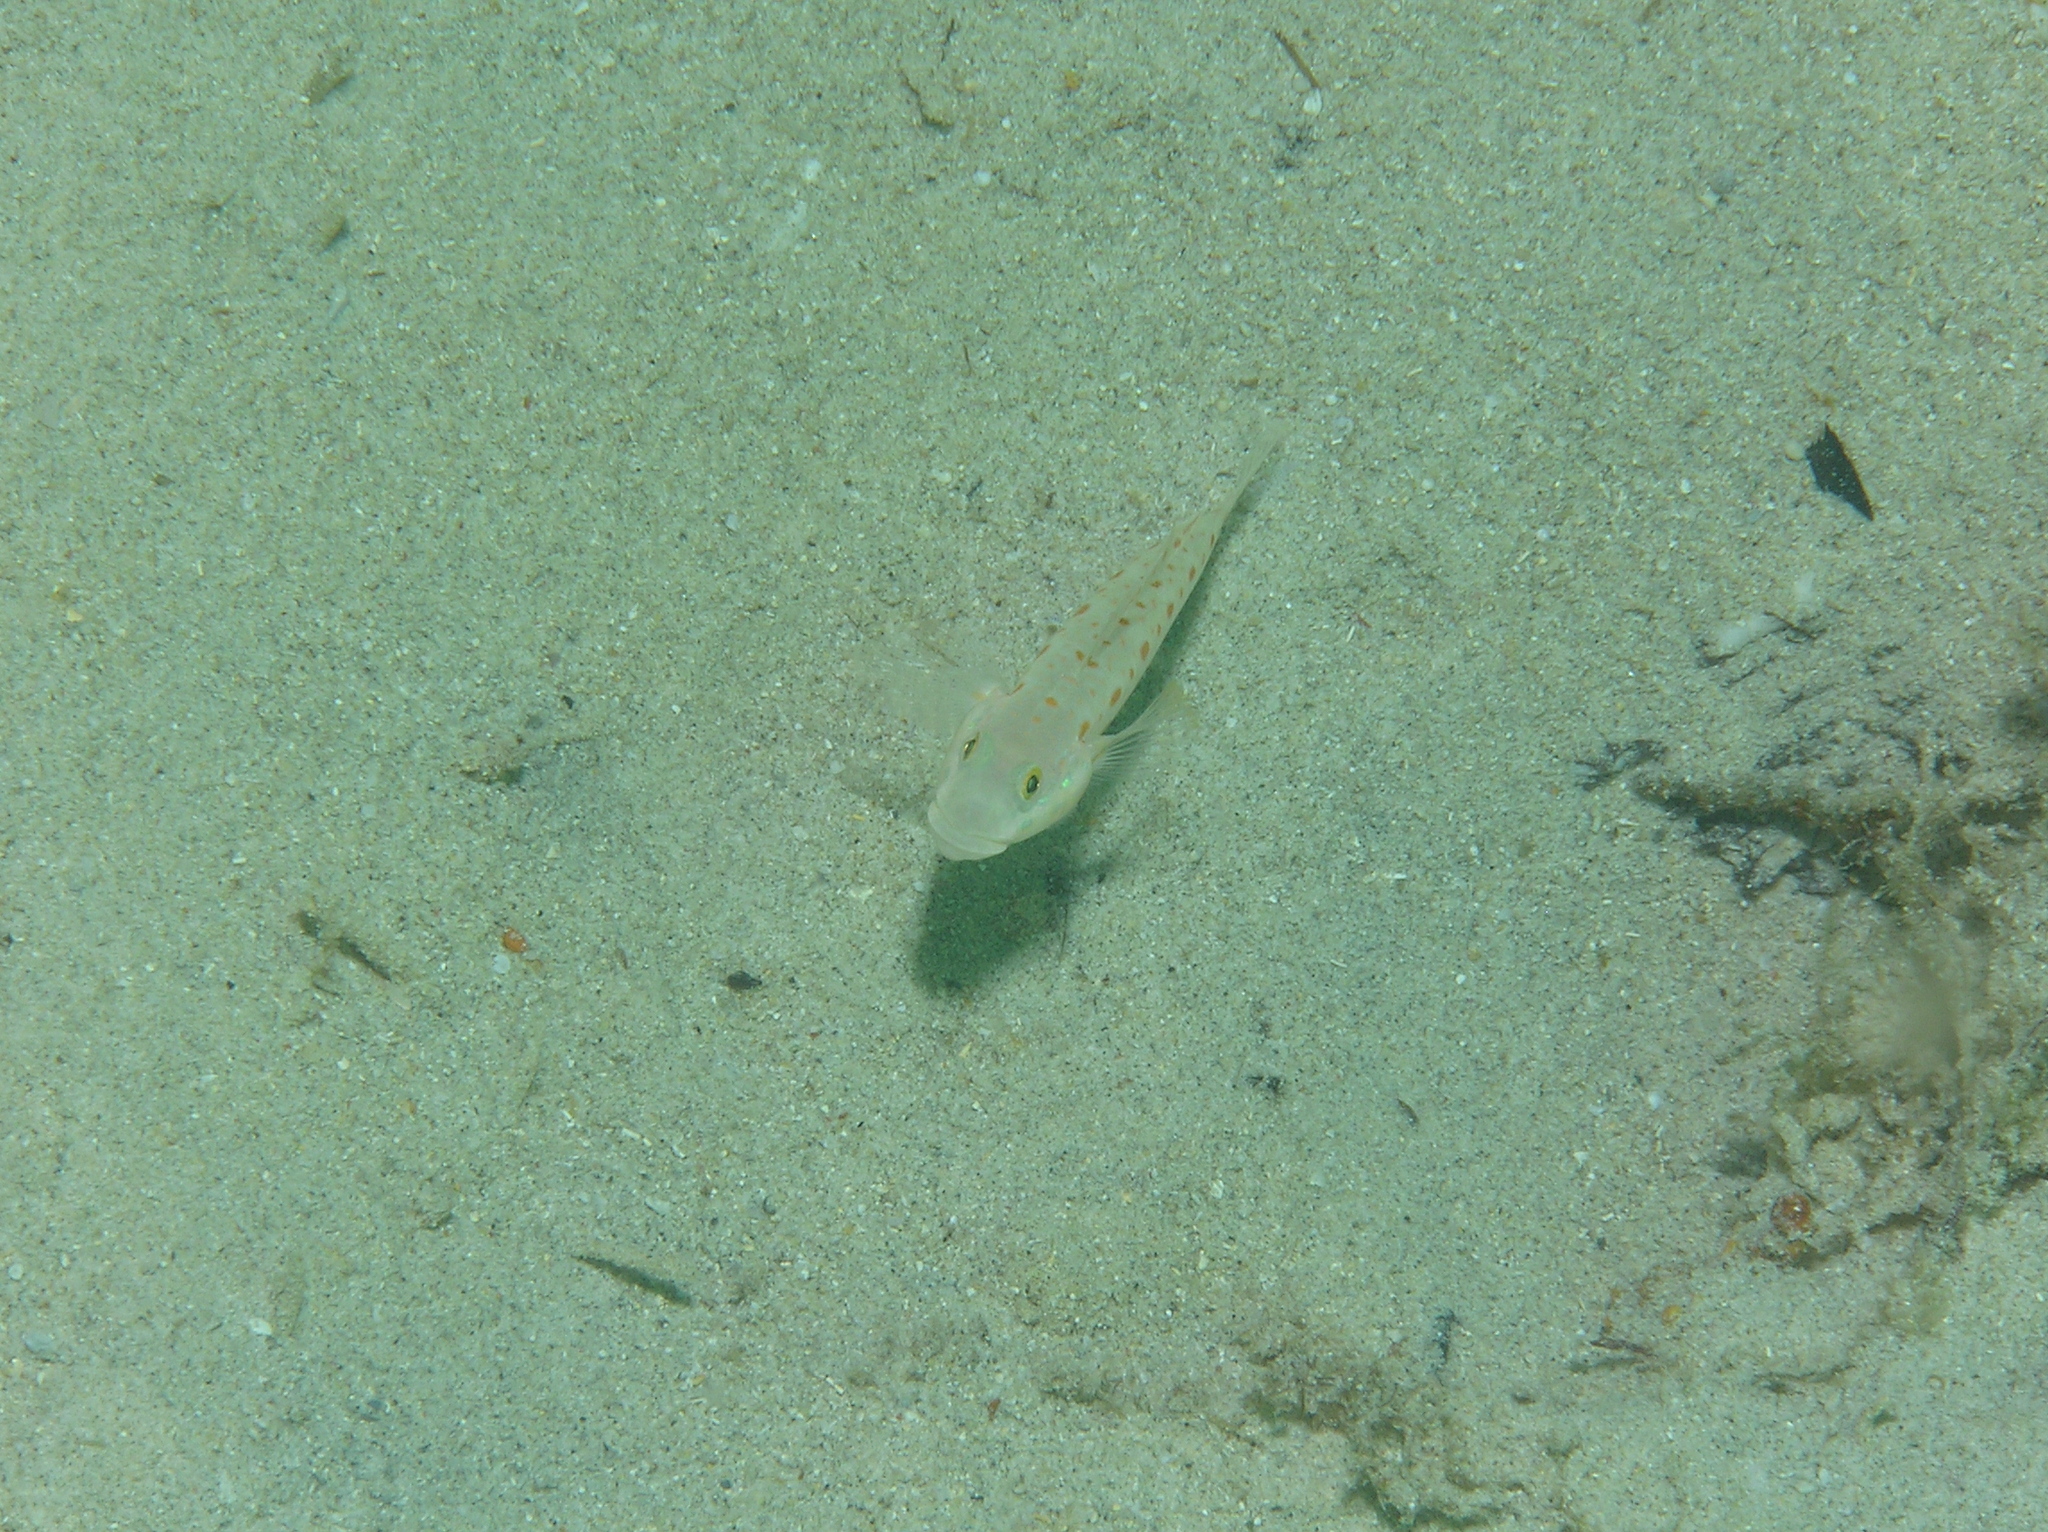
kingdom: Animalia
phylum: Chordata
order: Perciformes
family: Gobiidae
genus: Valenciennea
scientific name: Valenciennea puellaris
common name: Orange-dashed goby
